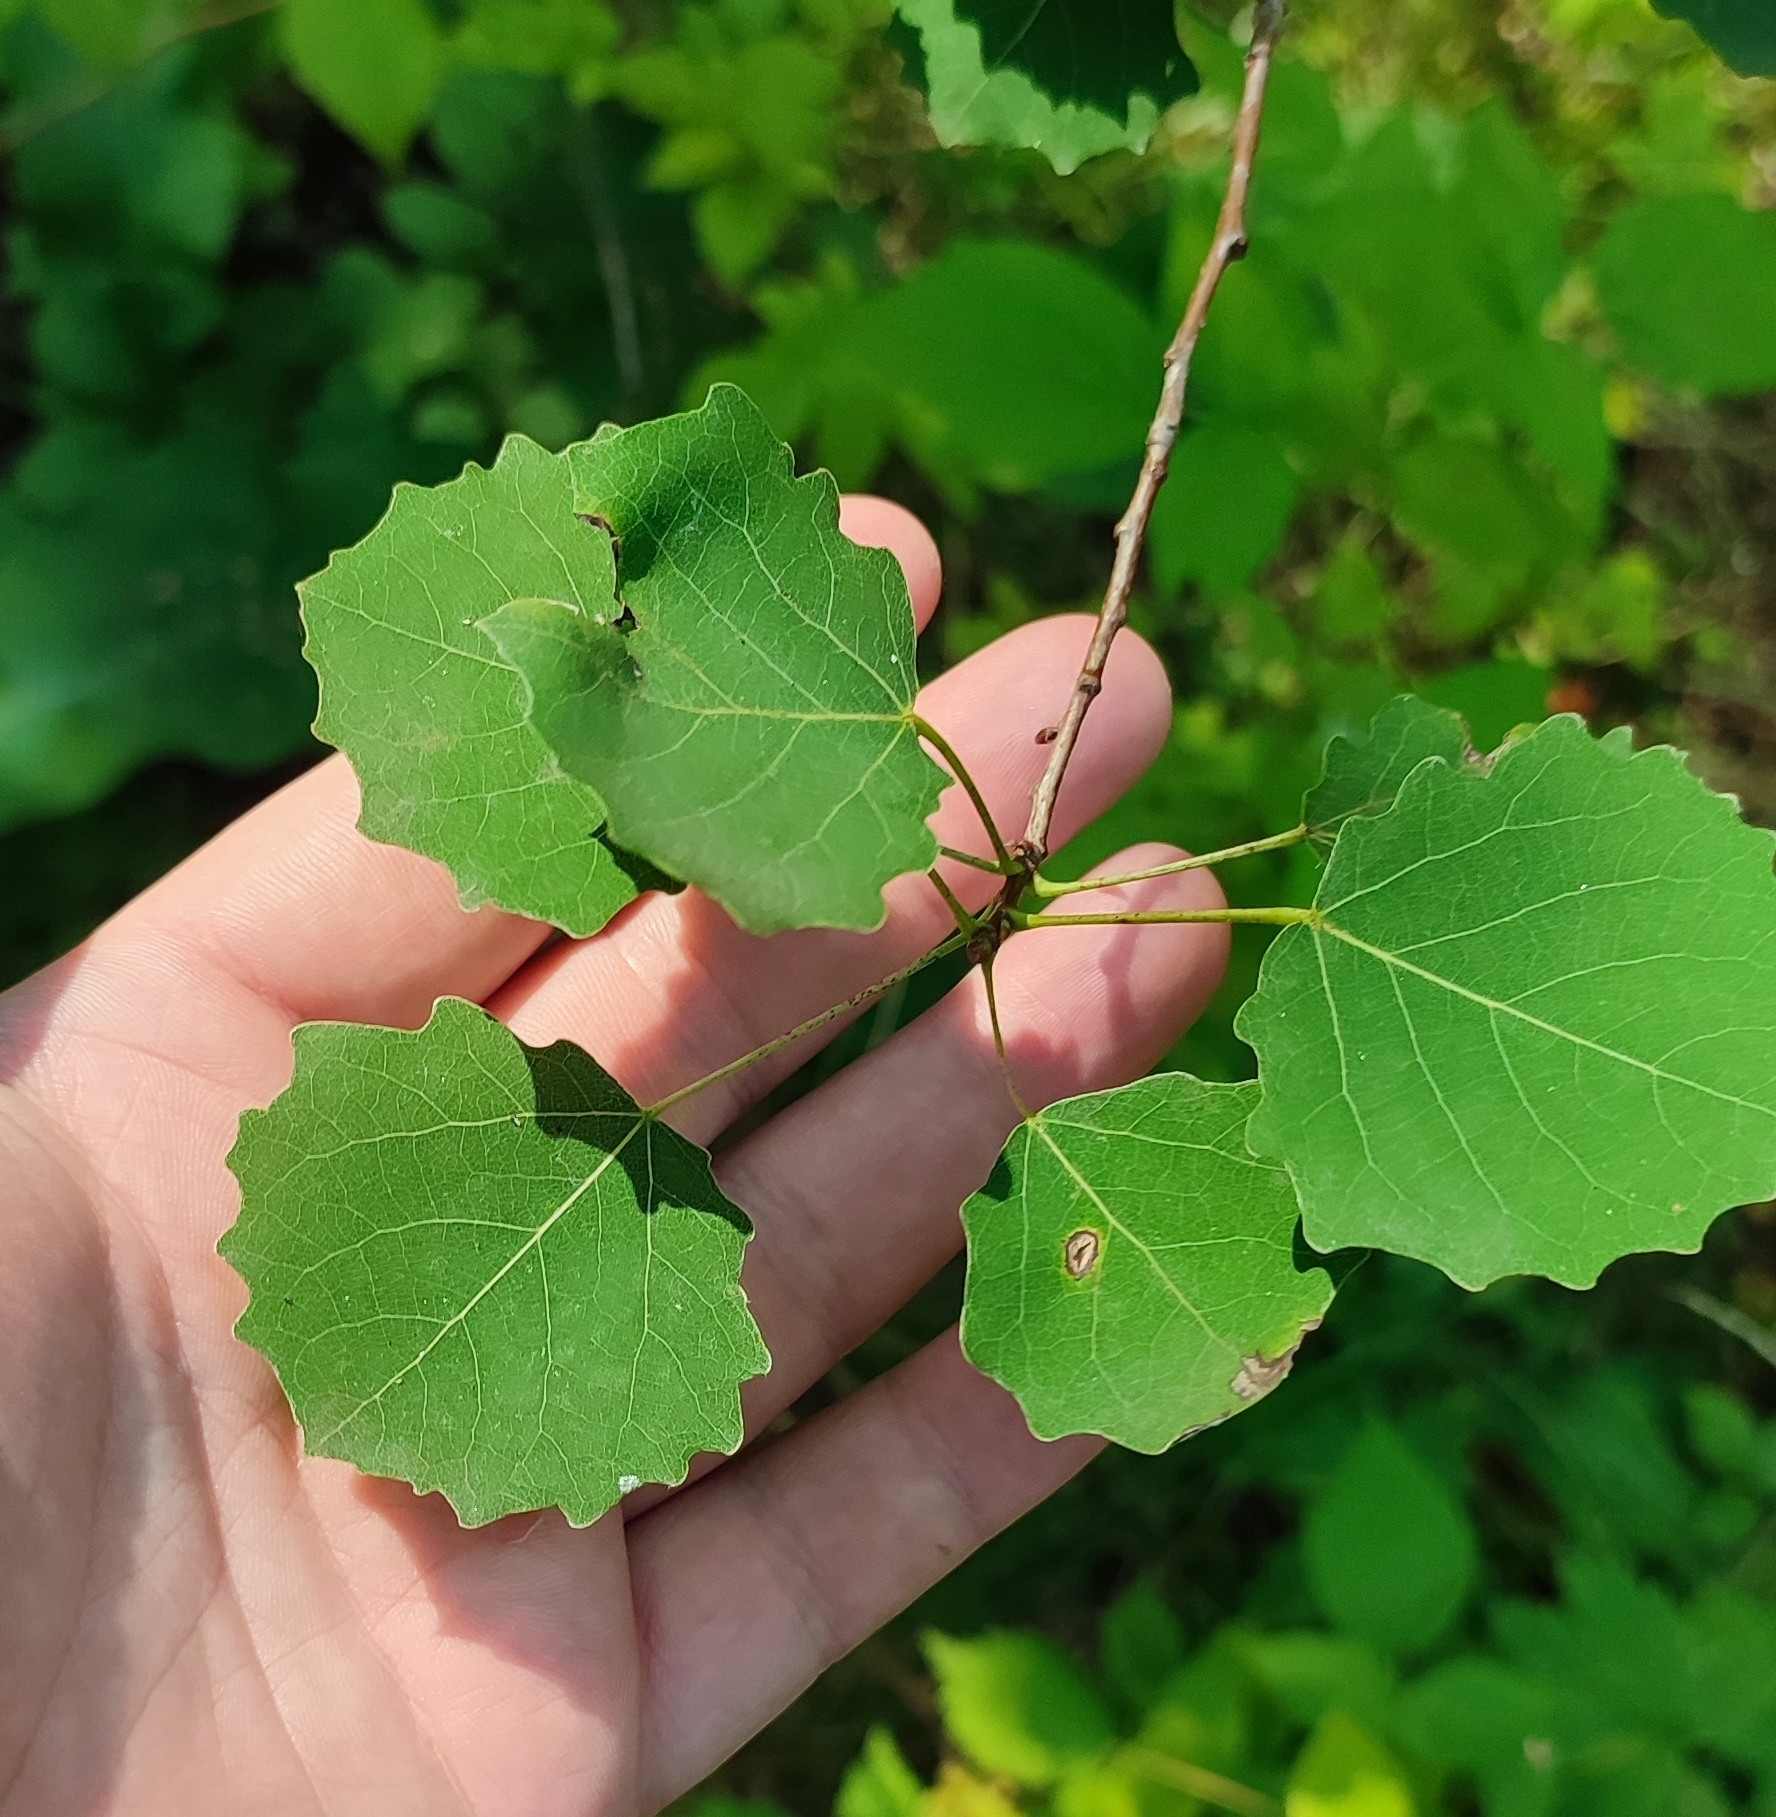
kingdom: Plantae
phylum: Tracheophyta
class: Magnoliopsida
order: Malpighiales
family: Salicaceae
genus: Populus
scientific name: Populus tremula
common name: European aspen
